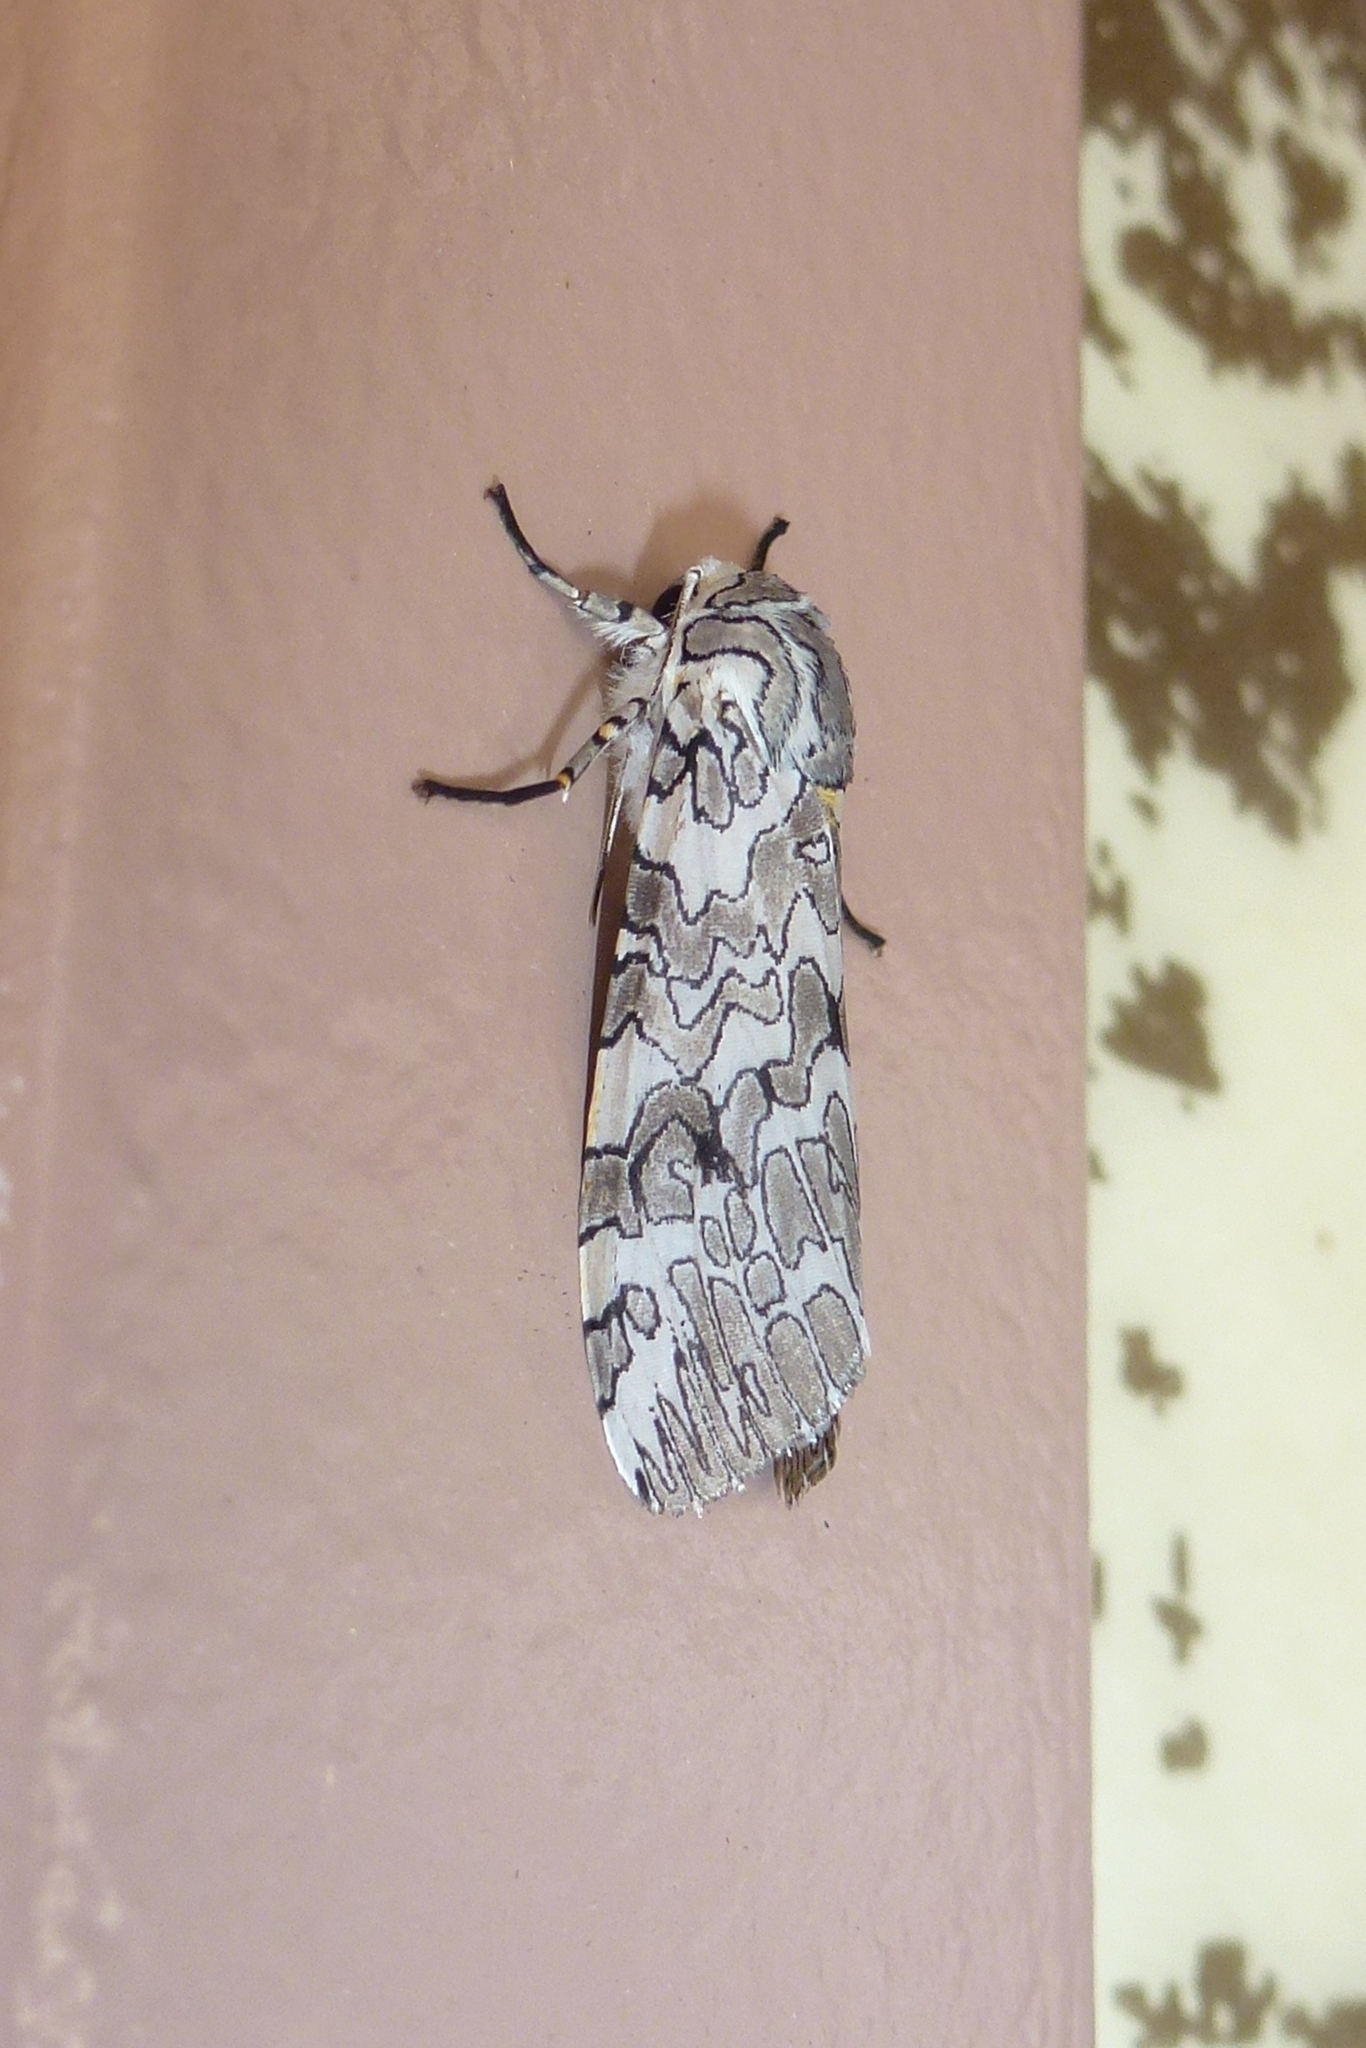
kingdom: Animalia
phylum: Arthropoda
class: Insecta
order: Lepidoptera
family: Erebidae
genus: Hypercompe
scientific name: Hypercompe suffusa
